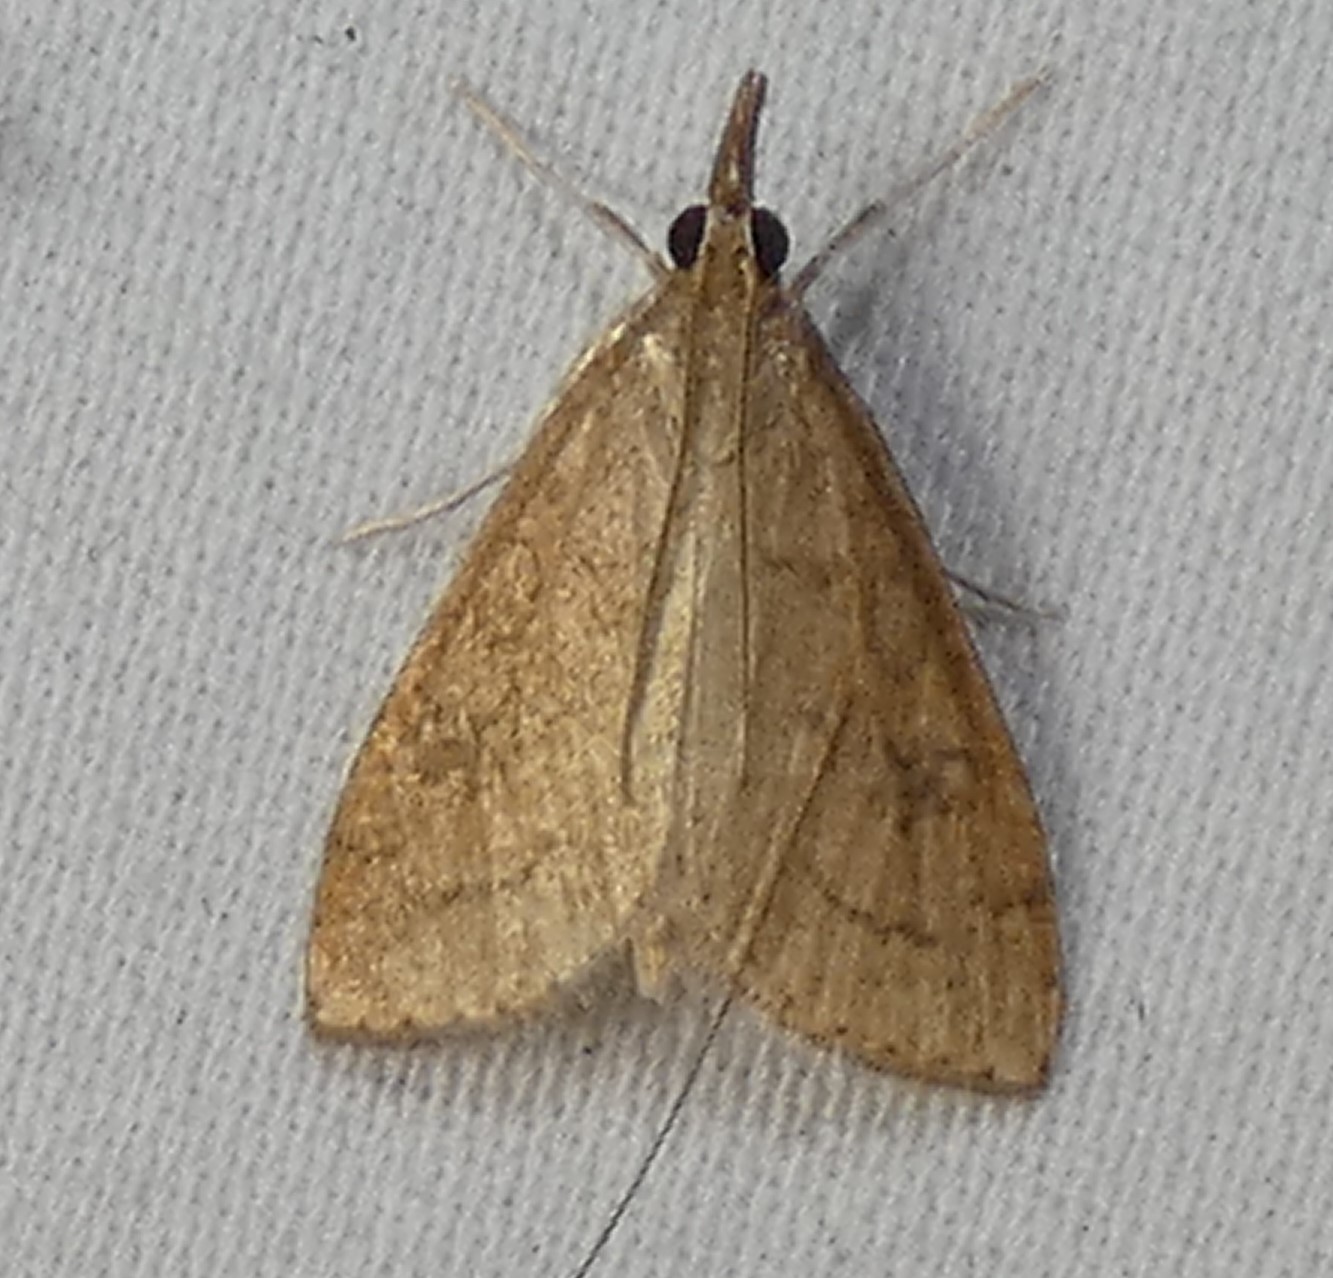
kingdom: Animalia
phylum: Arthropoda
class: Insecta
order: Lepidoptera
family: Crambidae
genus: Udea
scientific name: Udea rubigalis
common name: Celery leaftier moth
